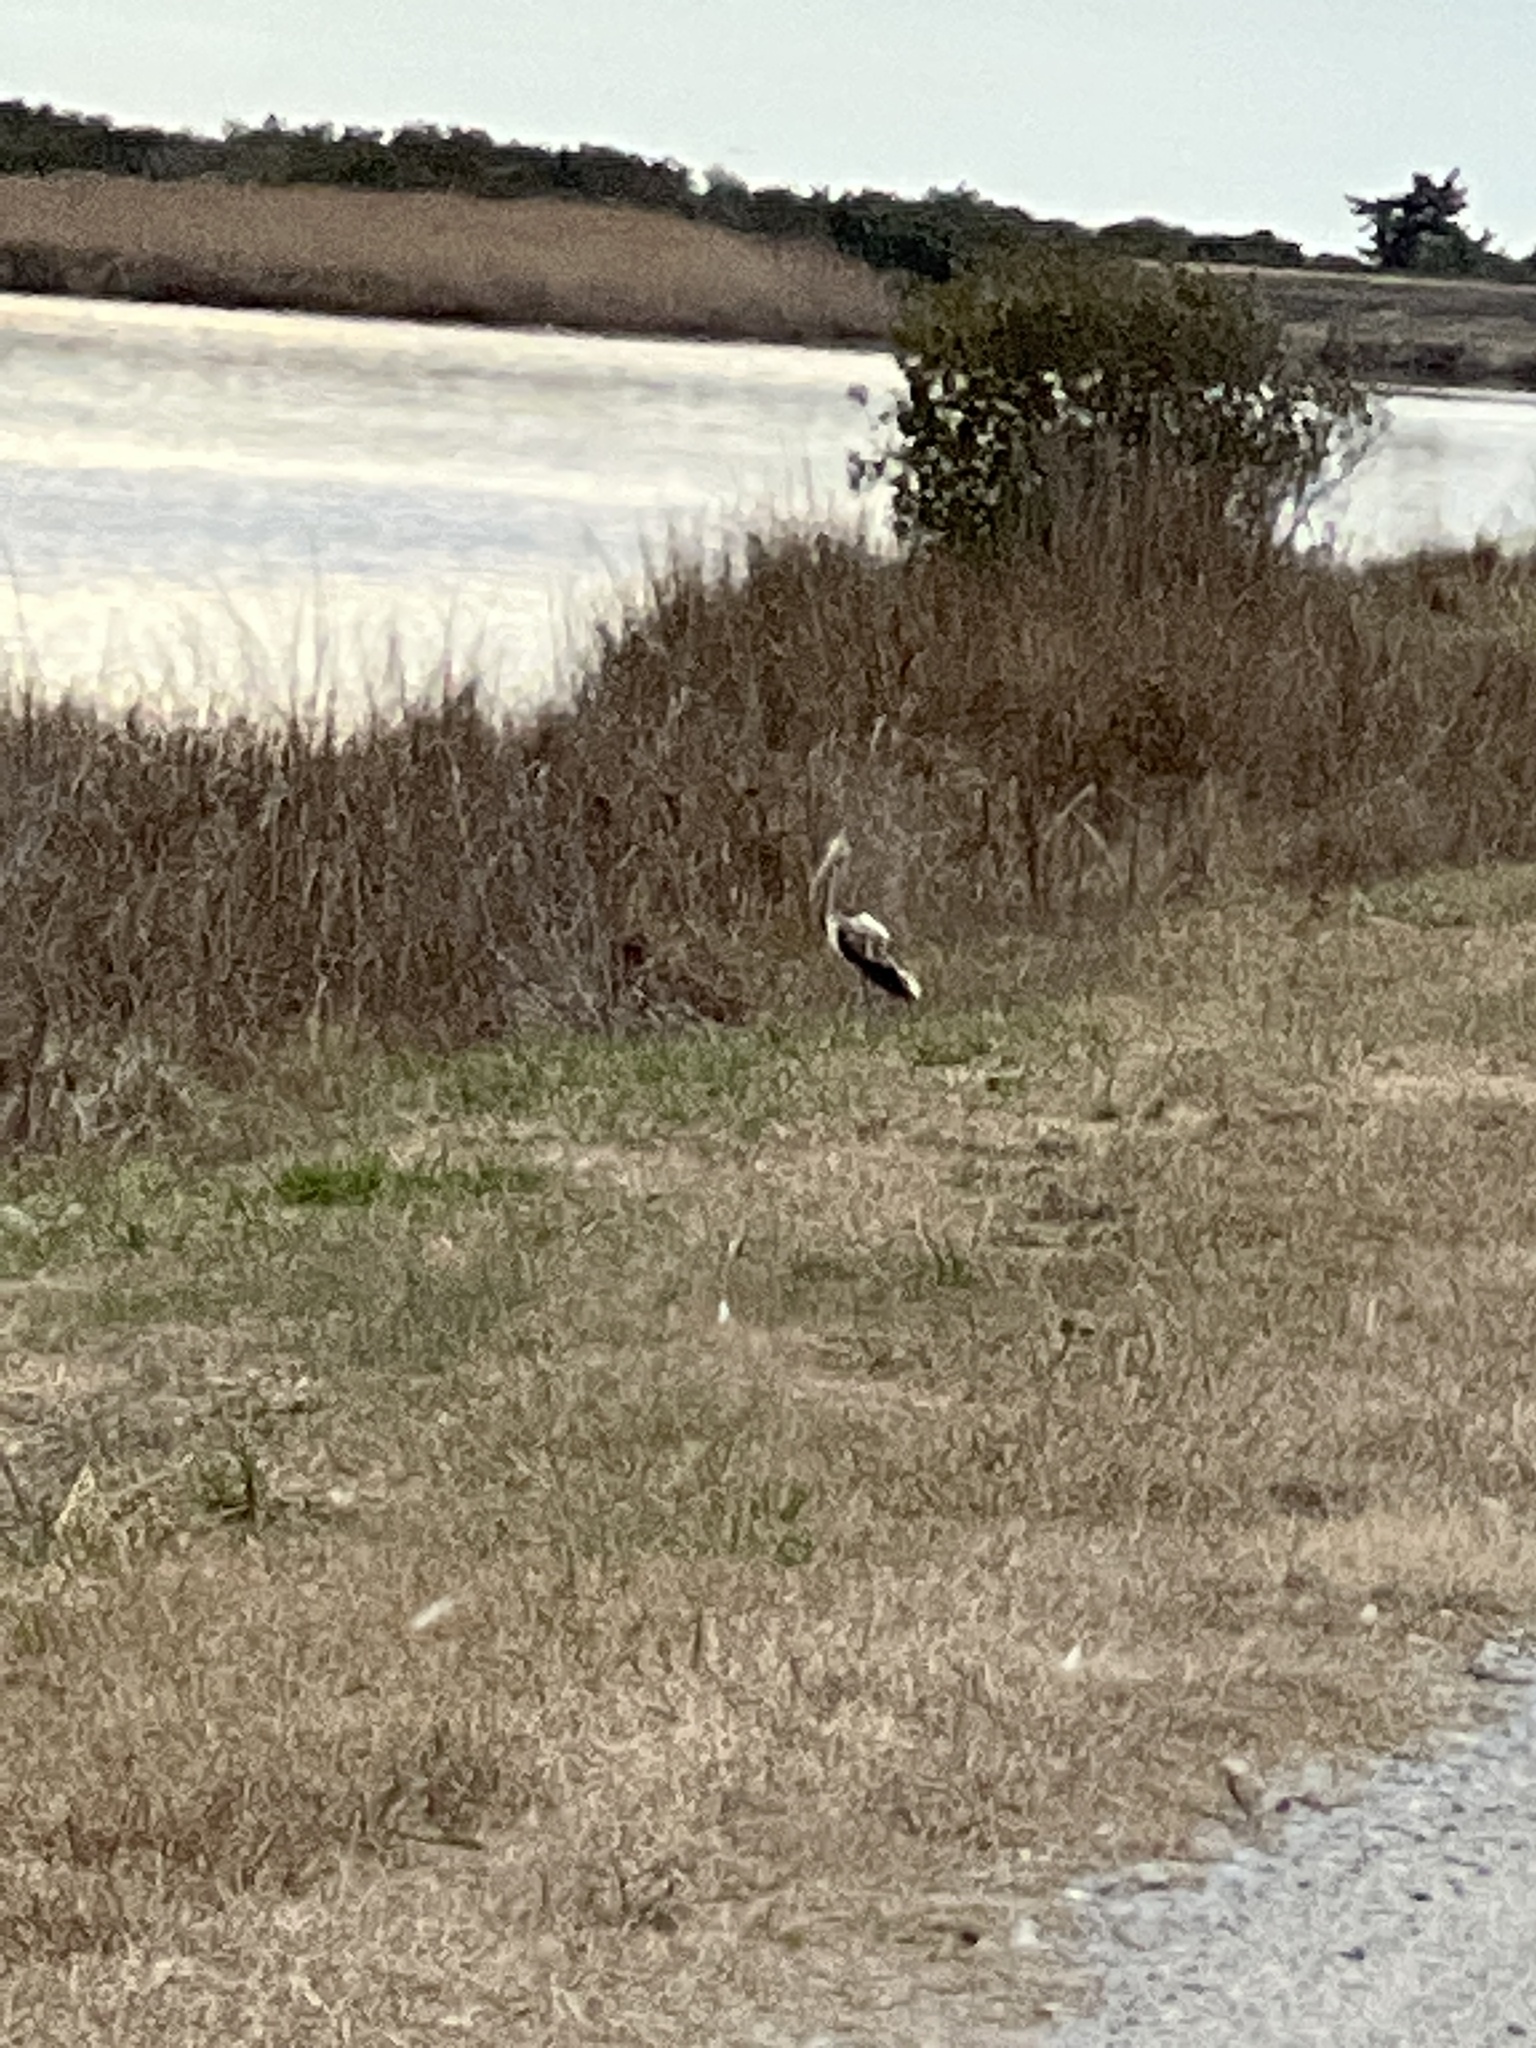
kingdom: Animalia
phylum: Chordata
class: Aves
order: Pelecaniformes
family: Threskiornithidae
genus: Eudocimus
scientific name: Eudocimus albus
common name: White ibis
